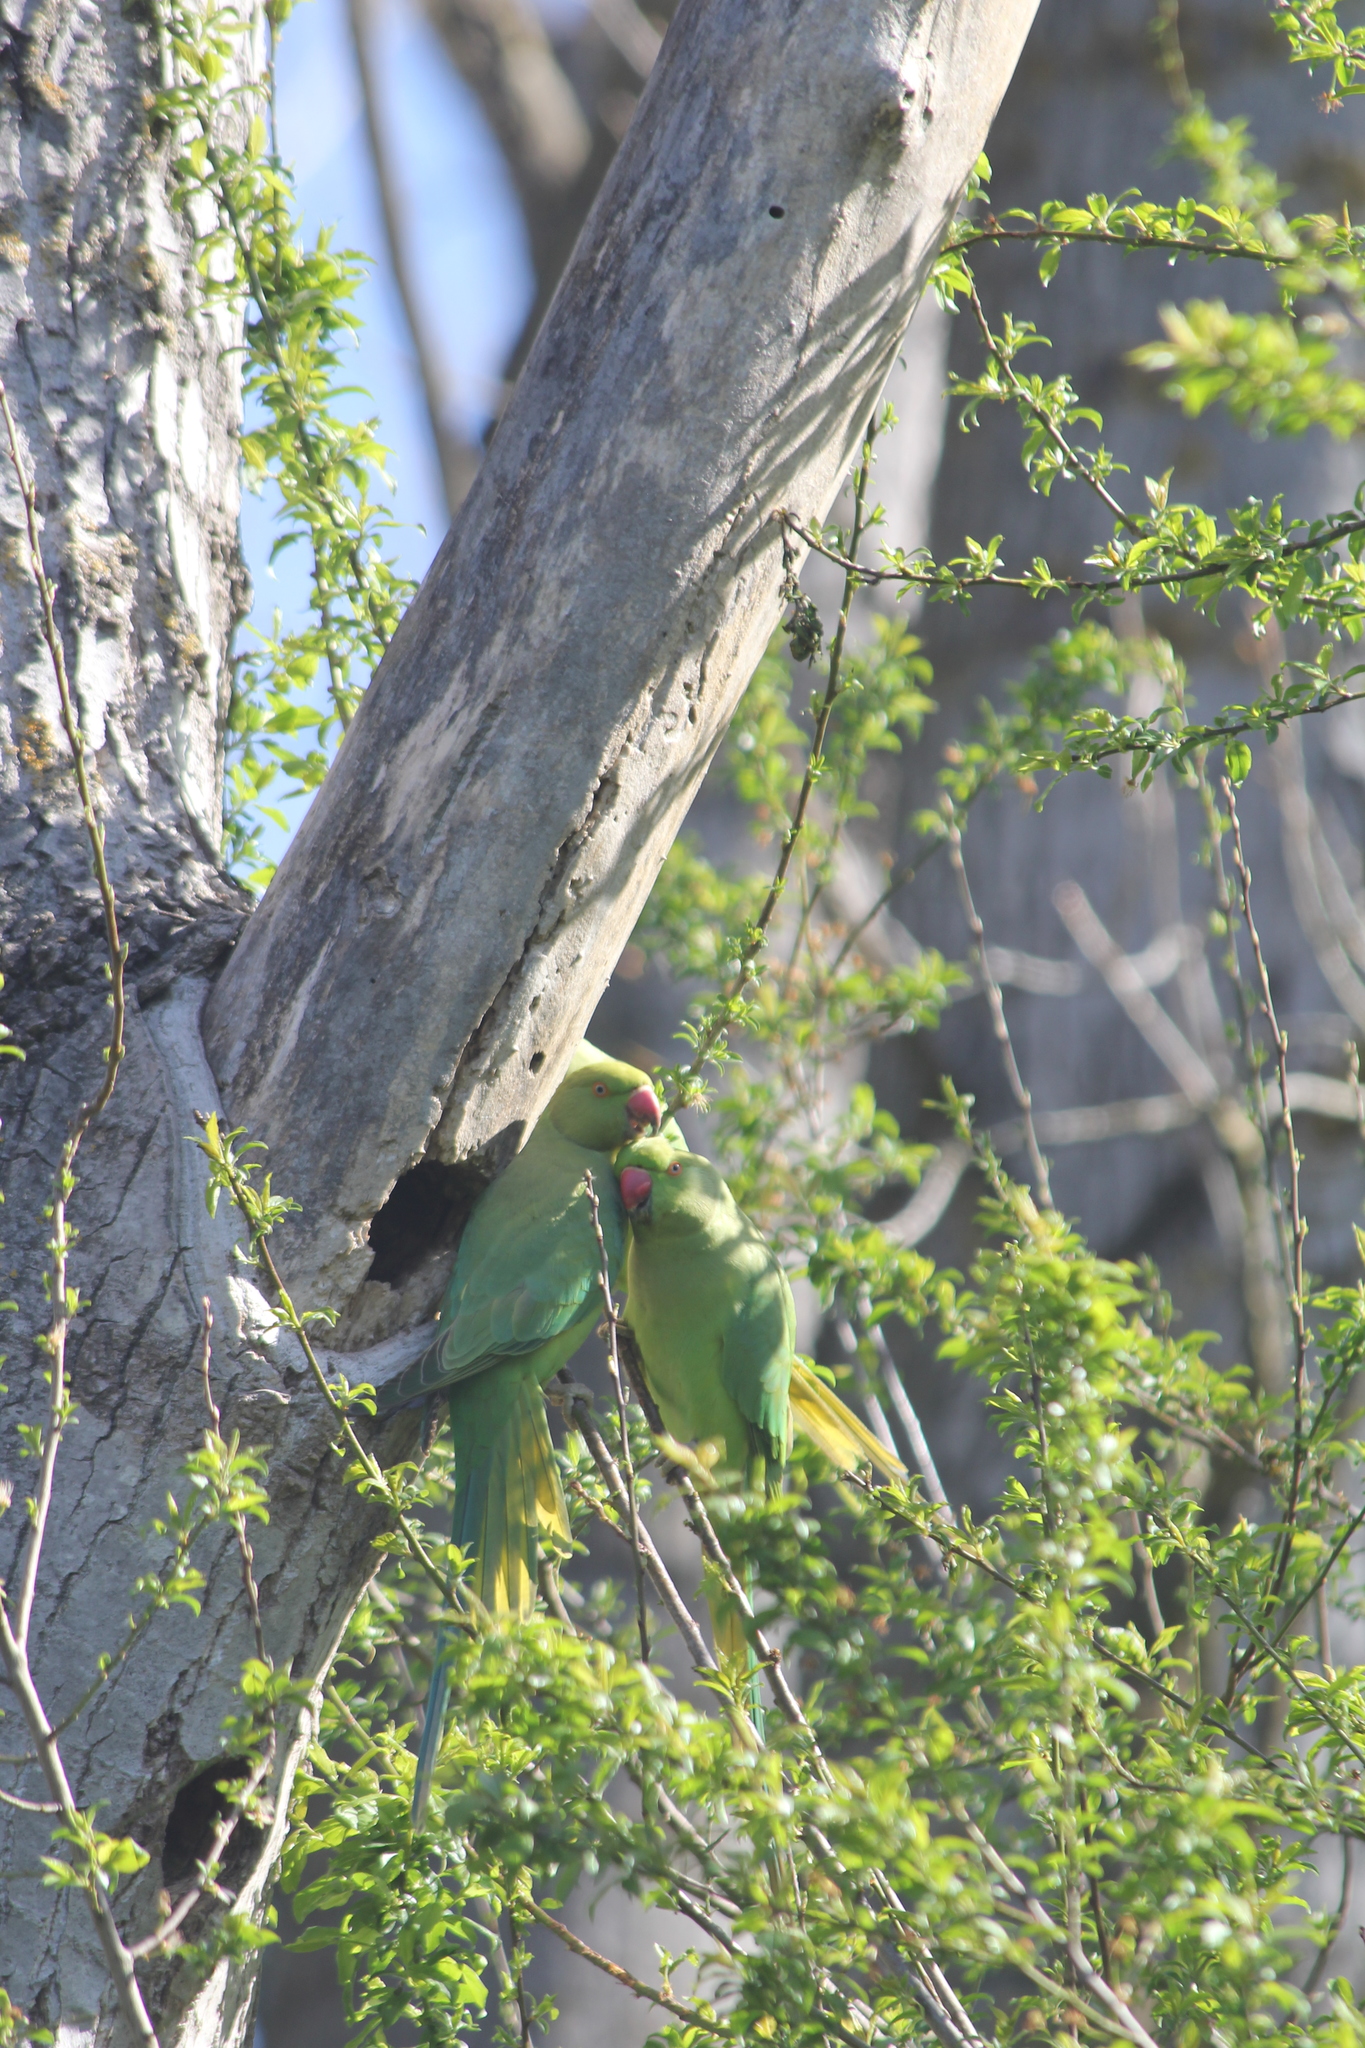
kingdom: Animalia
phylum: Chordata
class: Aves
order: Psittaciformes
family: Psittacidae
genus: Psittacula
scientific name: Psittacula krameri
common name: Rose-ringed parakeet
